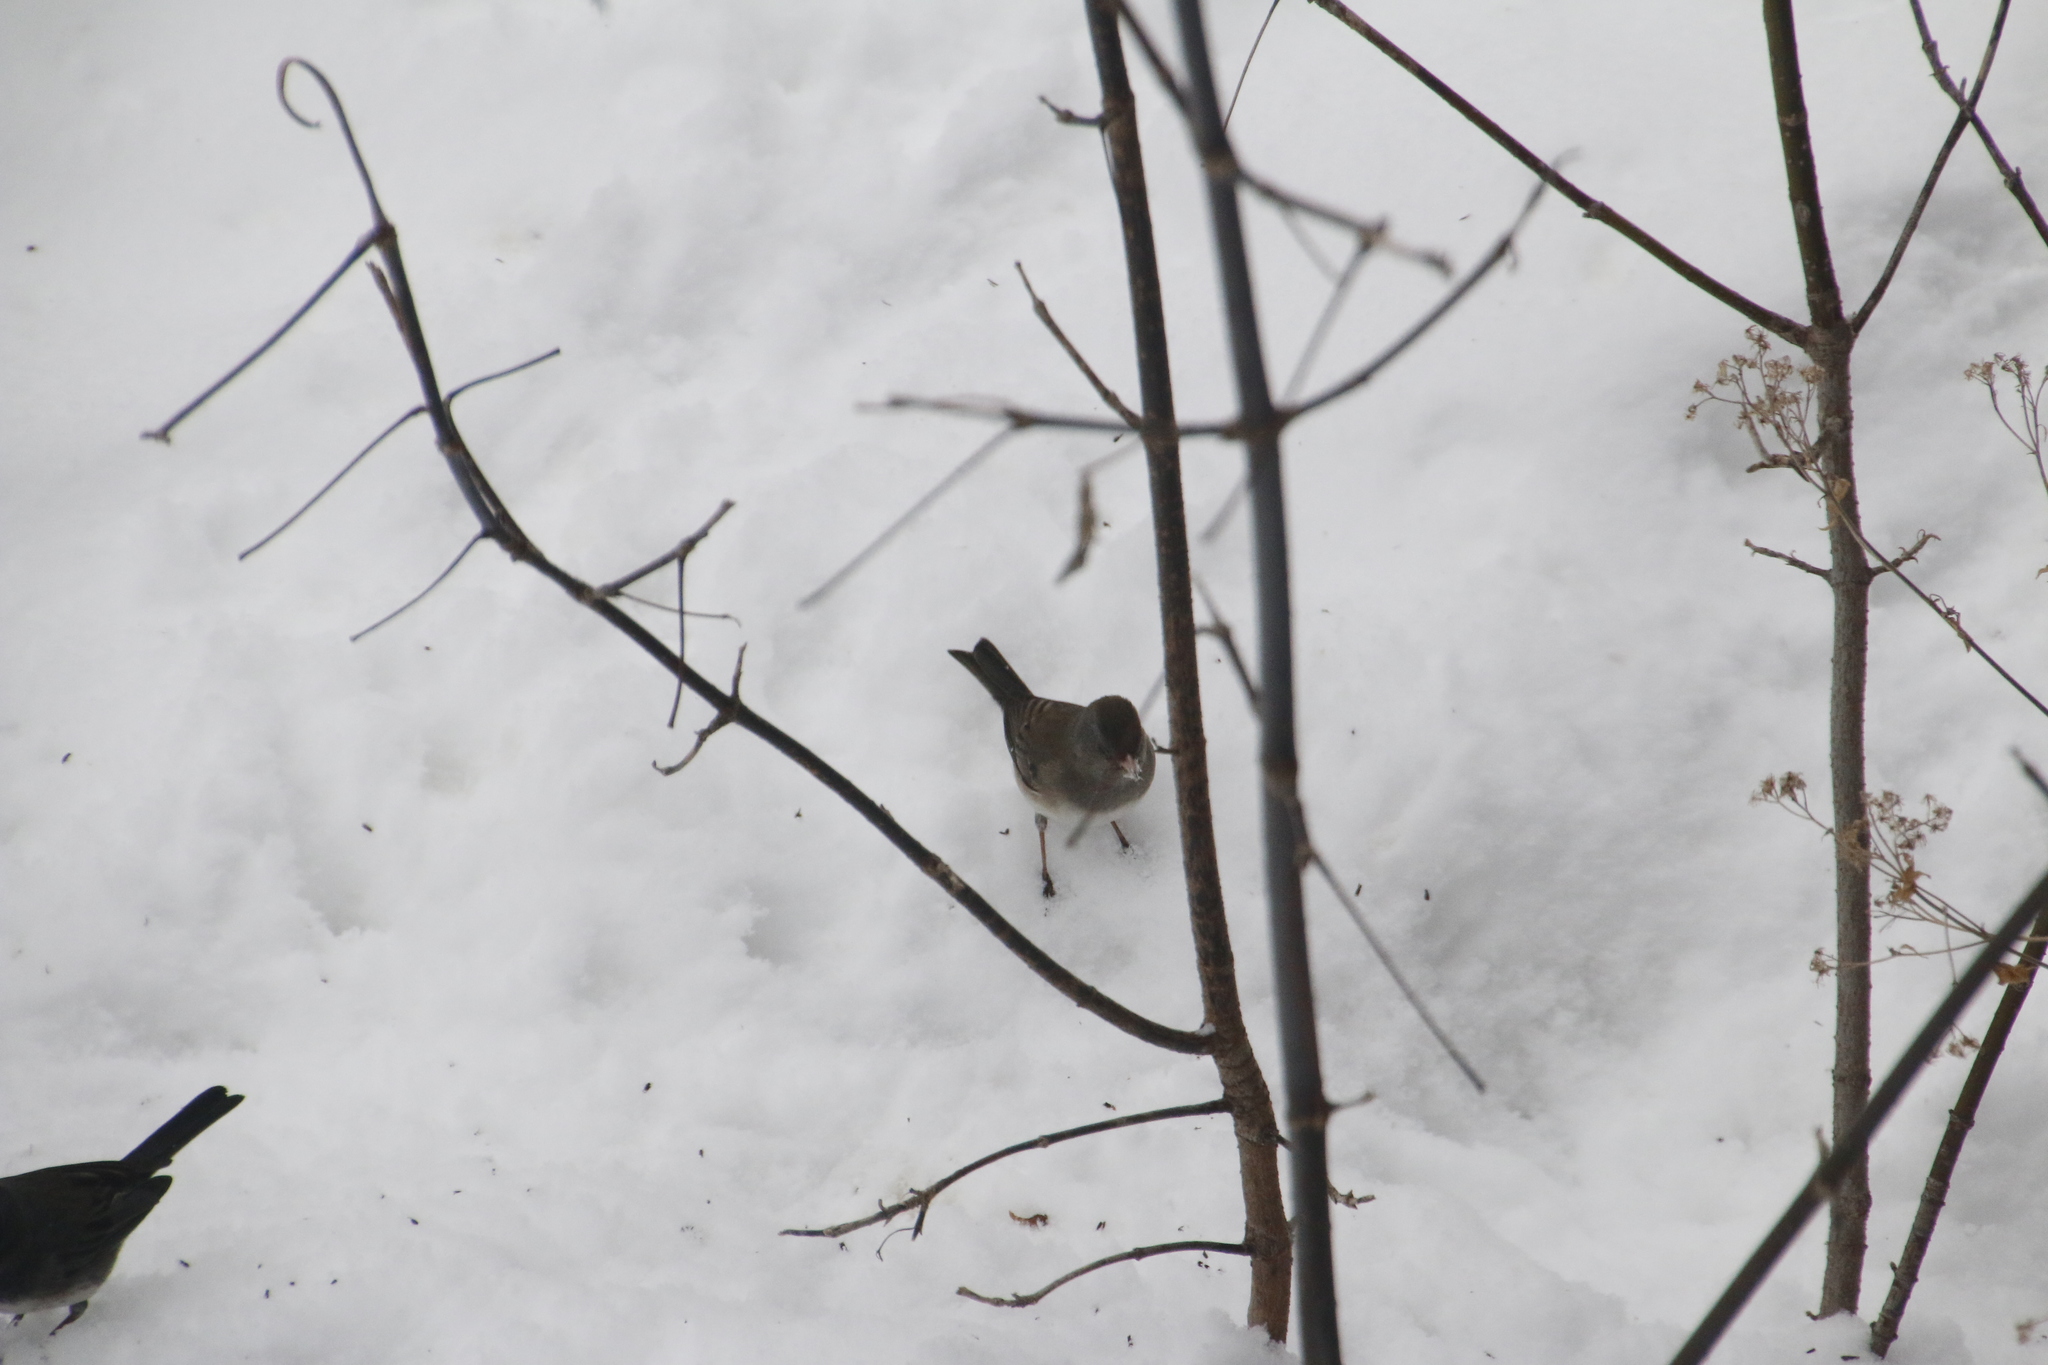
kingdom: Animalia
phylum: Chordata
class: Aves
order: Passeriformes
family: Passerellidae
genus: Junco
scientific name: Junco hyemalis
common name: Dark-eyed junco
